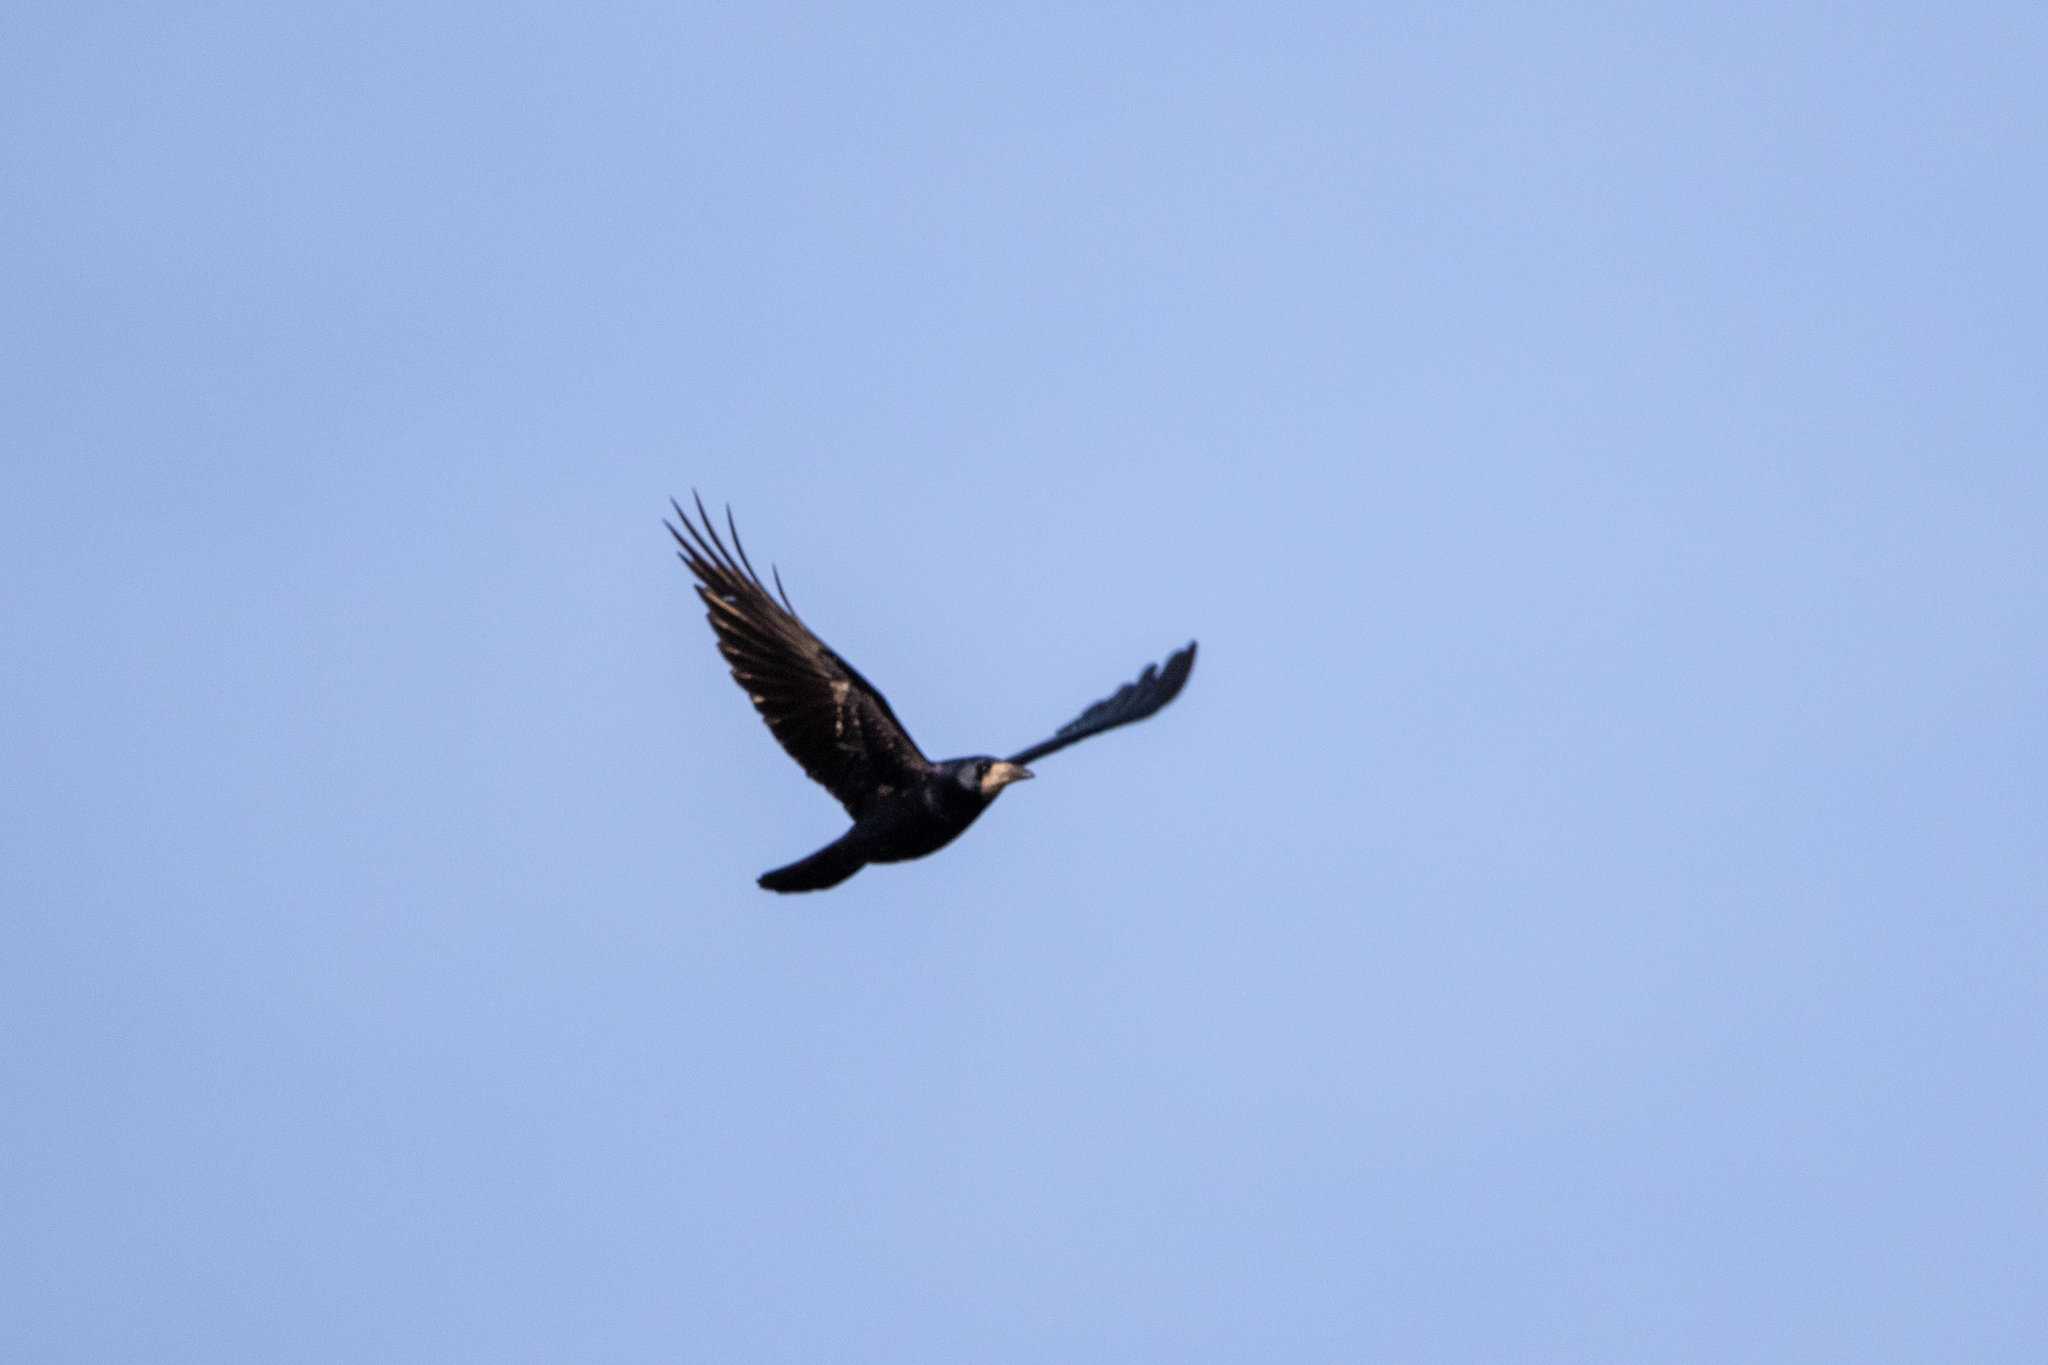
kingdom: Animalia
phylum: Chordata
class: Aves
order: Passeriformes
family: Corvidae
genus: Corvus
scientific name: Corvus frugilegus
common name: Rook
